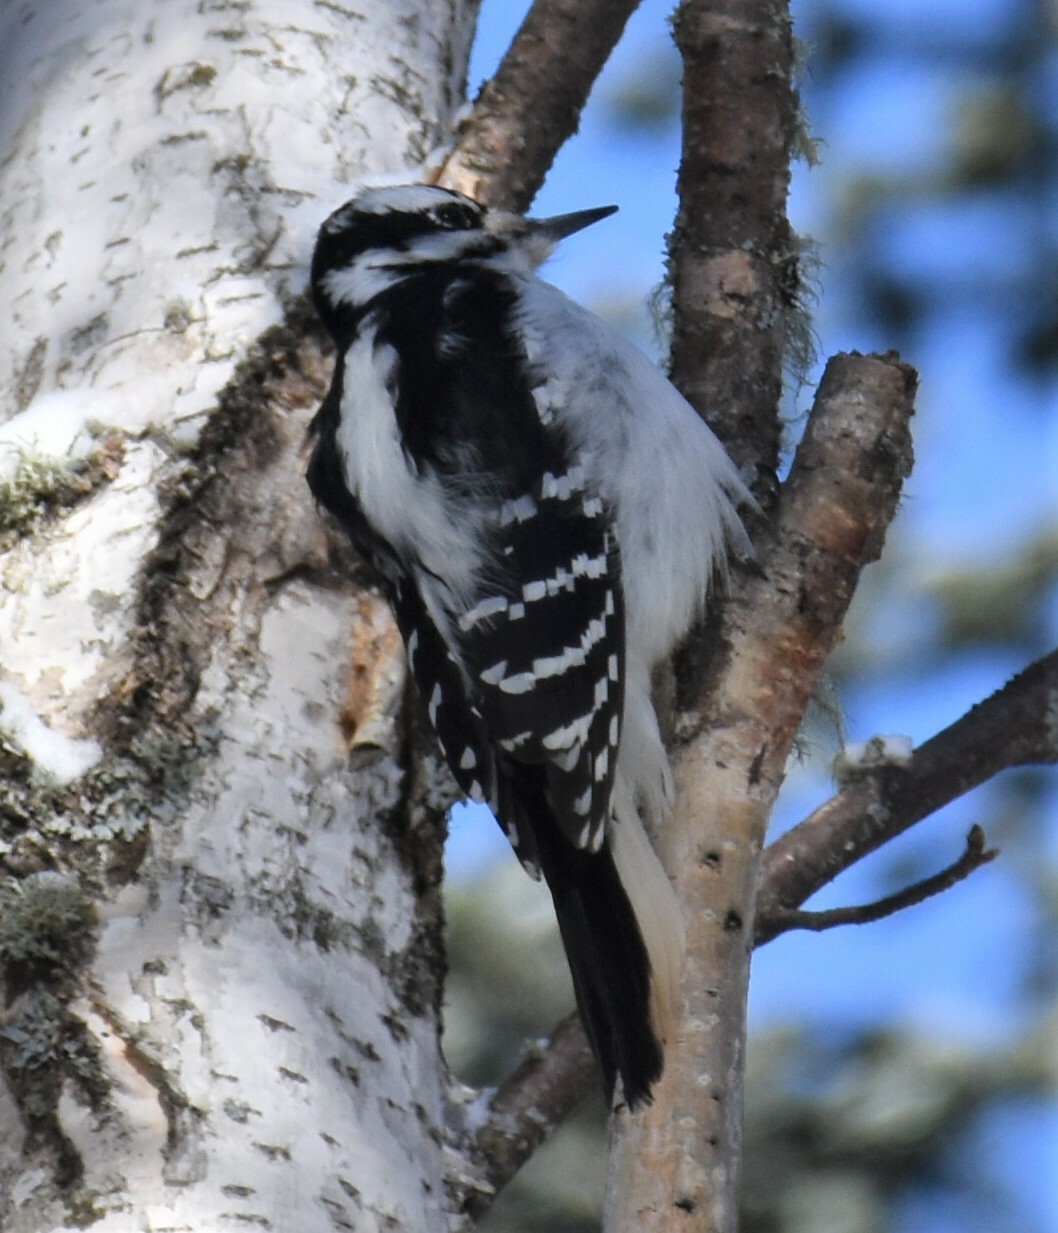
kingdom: Animalia
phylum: Chordata
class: Aves
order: Piciformes
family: Picidae
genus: Leuconotopicus
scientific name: Leuconotopicus villosus
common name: Hairy woodpecker
